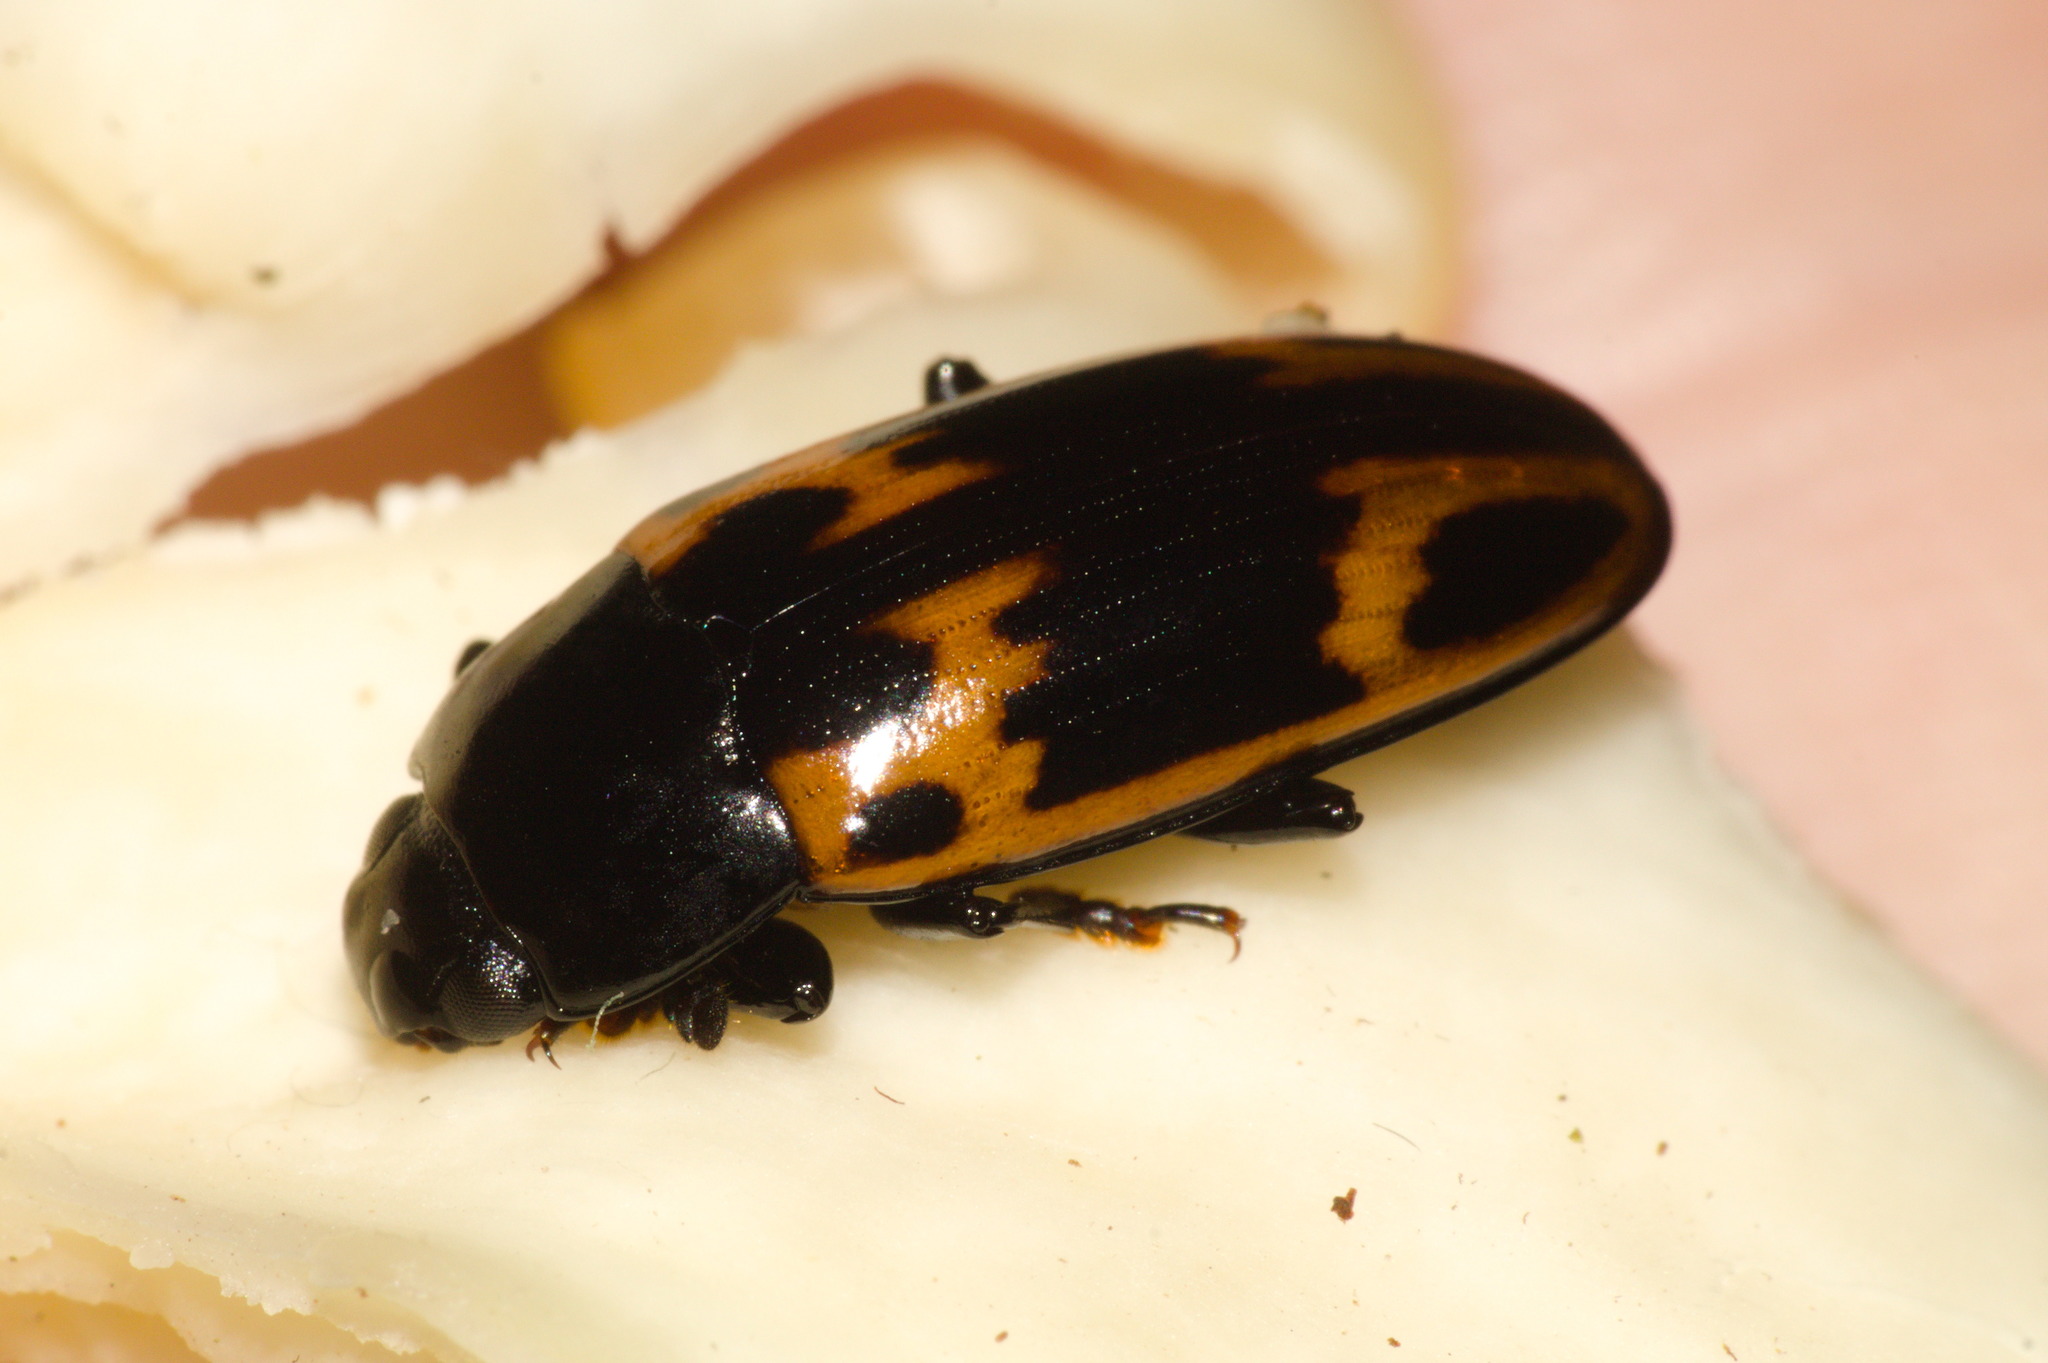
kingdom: Animalia
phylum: Arthropoda
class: Insecta
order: Coleoptera
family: Erotylidae
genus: Pselaphacus
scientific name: Pselaphacus curvipes
